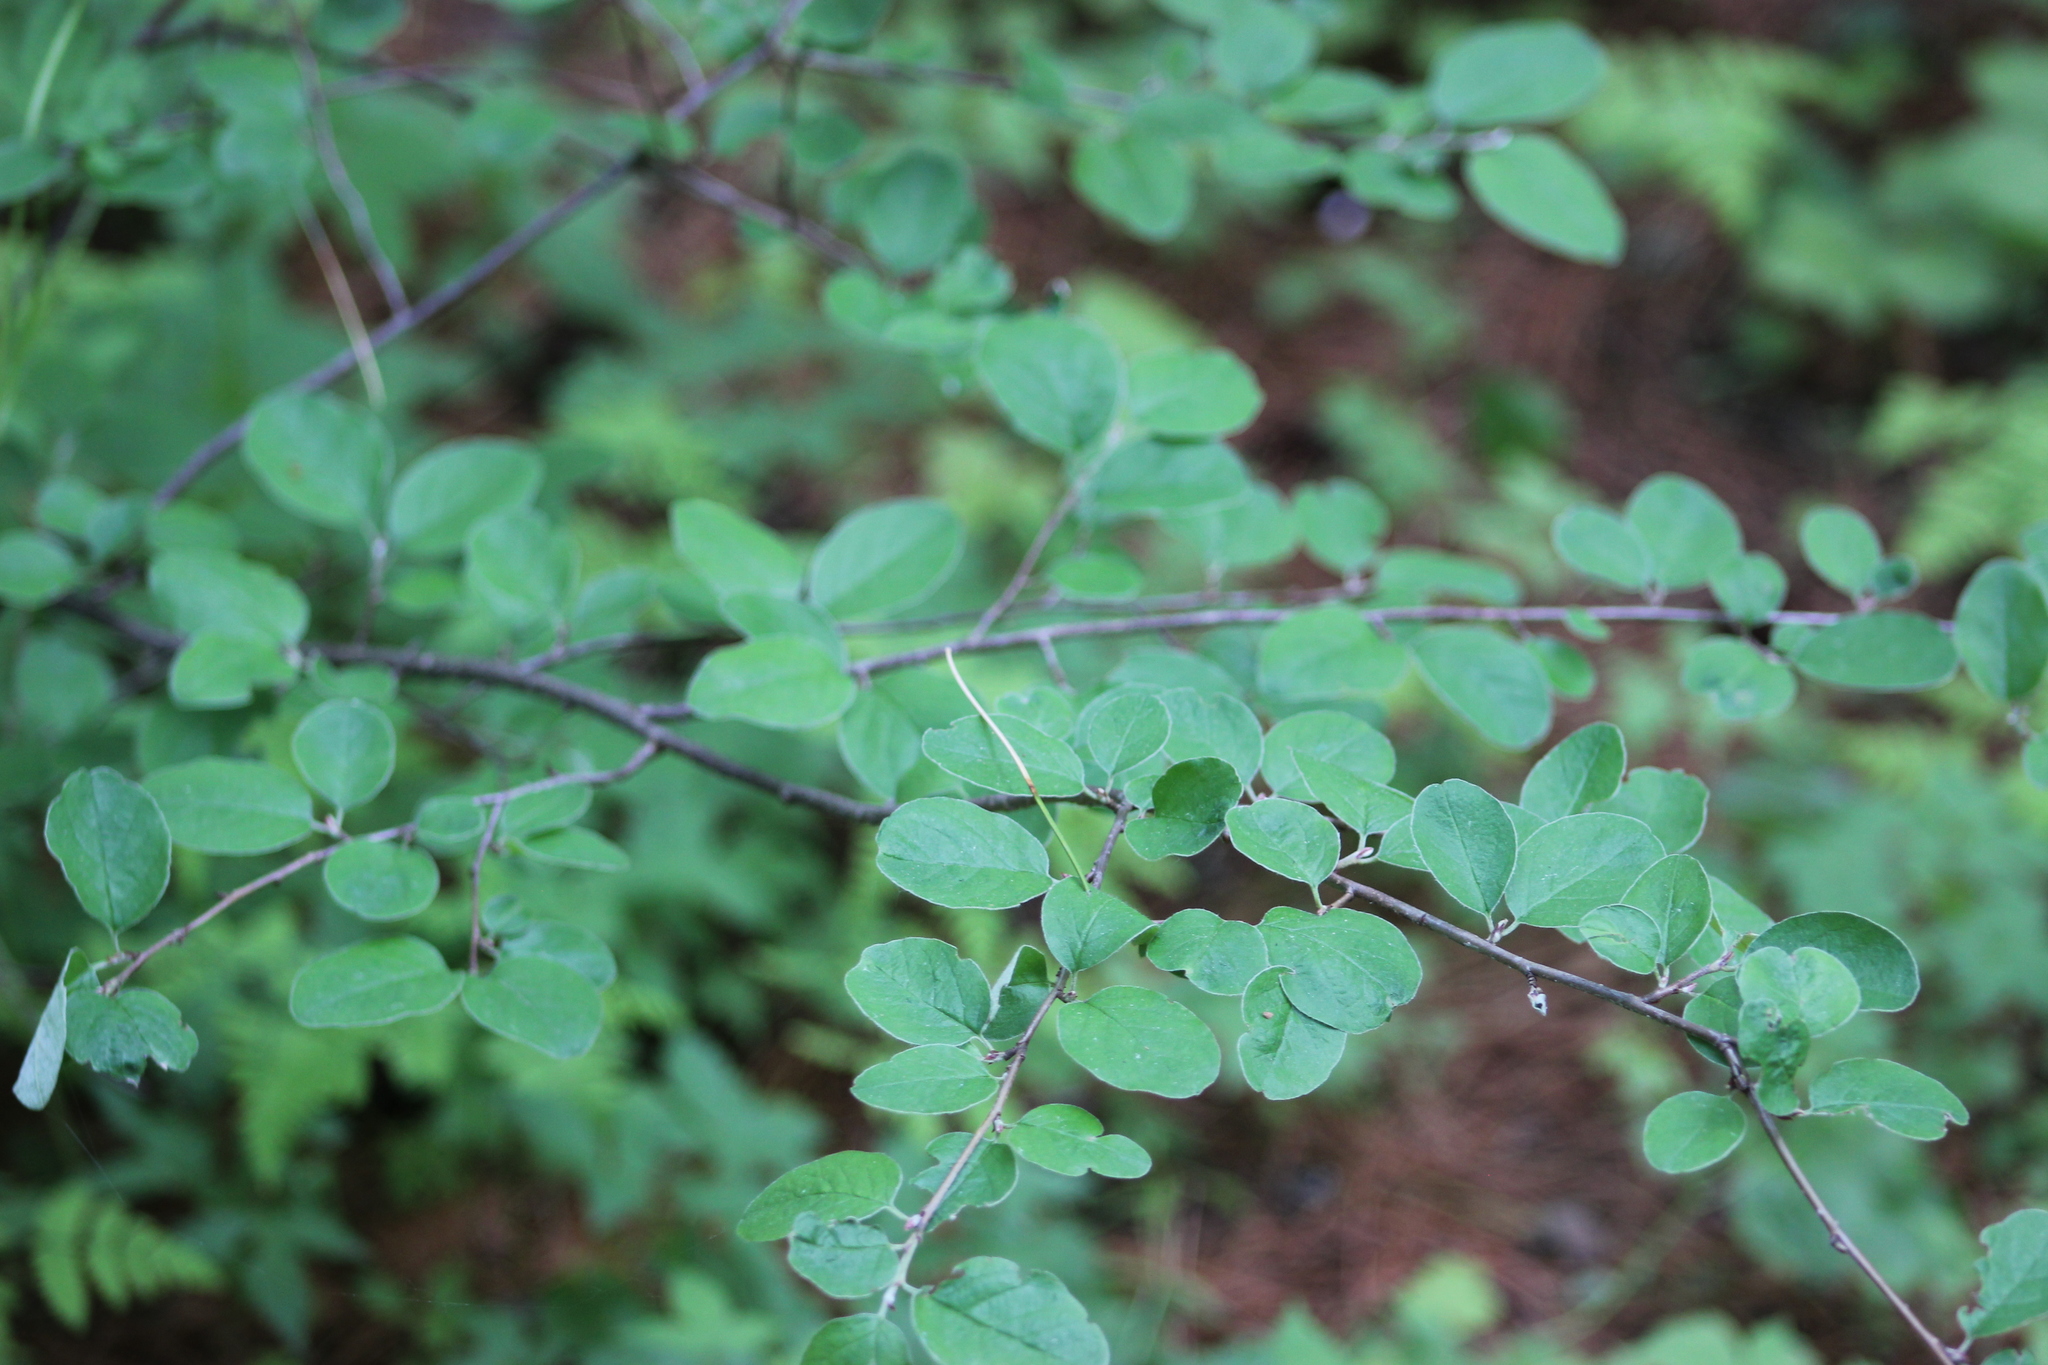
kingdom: Plantae
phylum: Tracheophyta
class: Magnoliopsida
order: Rosales
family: Rosaceae
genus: Cotoneaster
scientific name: Cotoneaster melanocarpus
